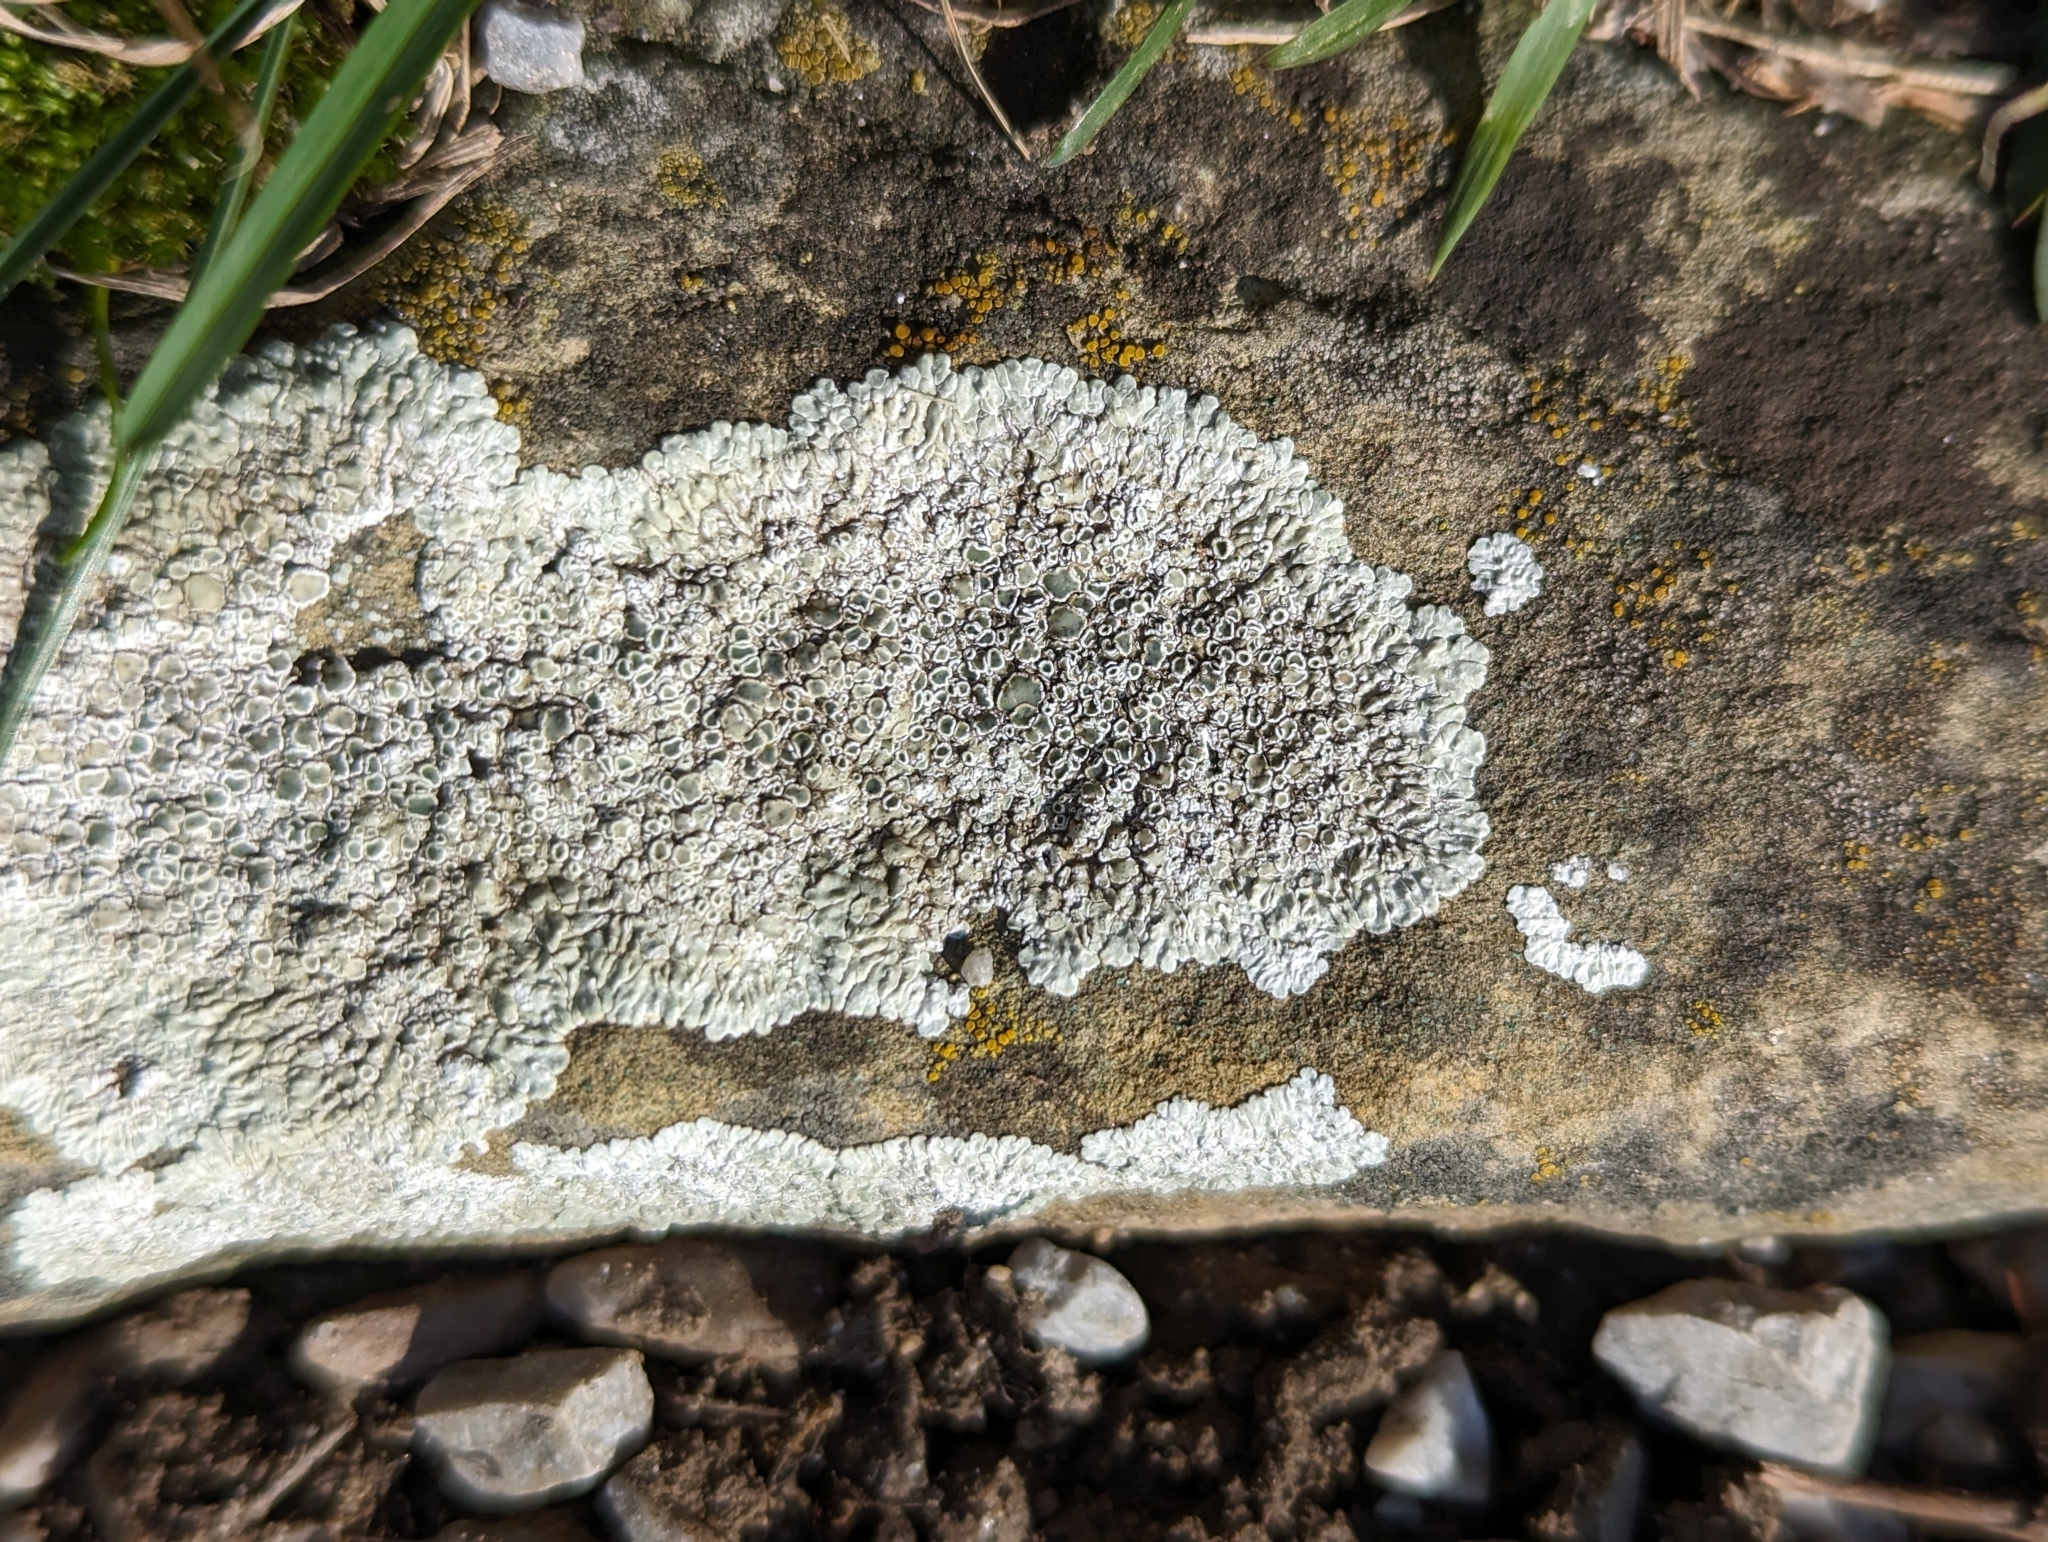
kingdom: Fungi
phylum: Ascomycota
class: Lecanoromycetes
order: Lecanorales
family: Lecanoraceae
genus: Protoparmeliopsis
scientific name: Protoparmeliopsis muralis
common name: Stonewall rim lichen
